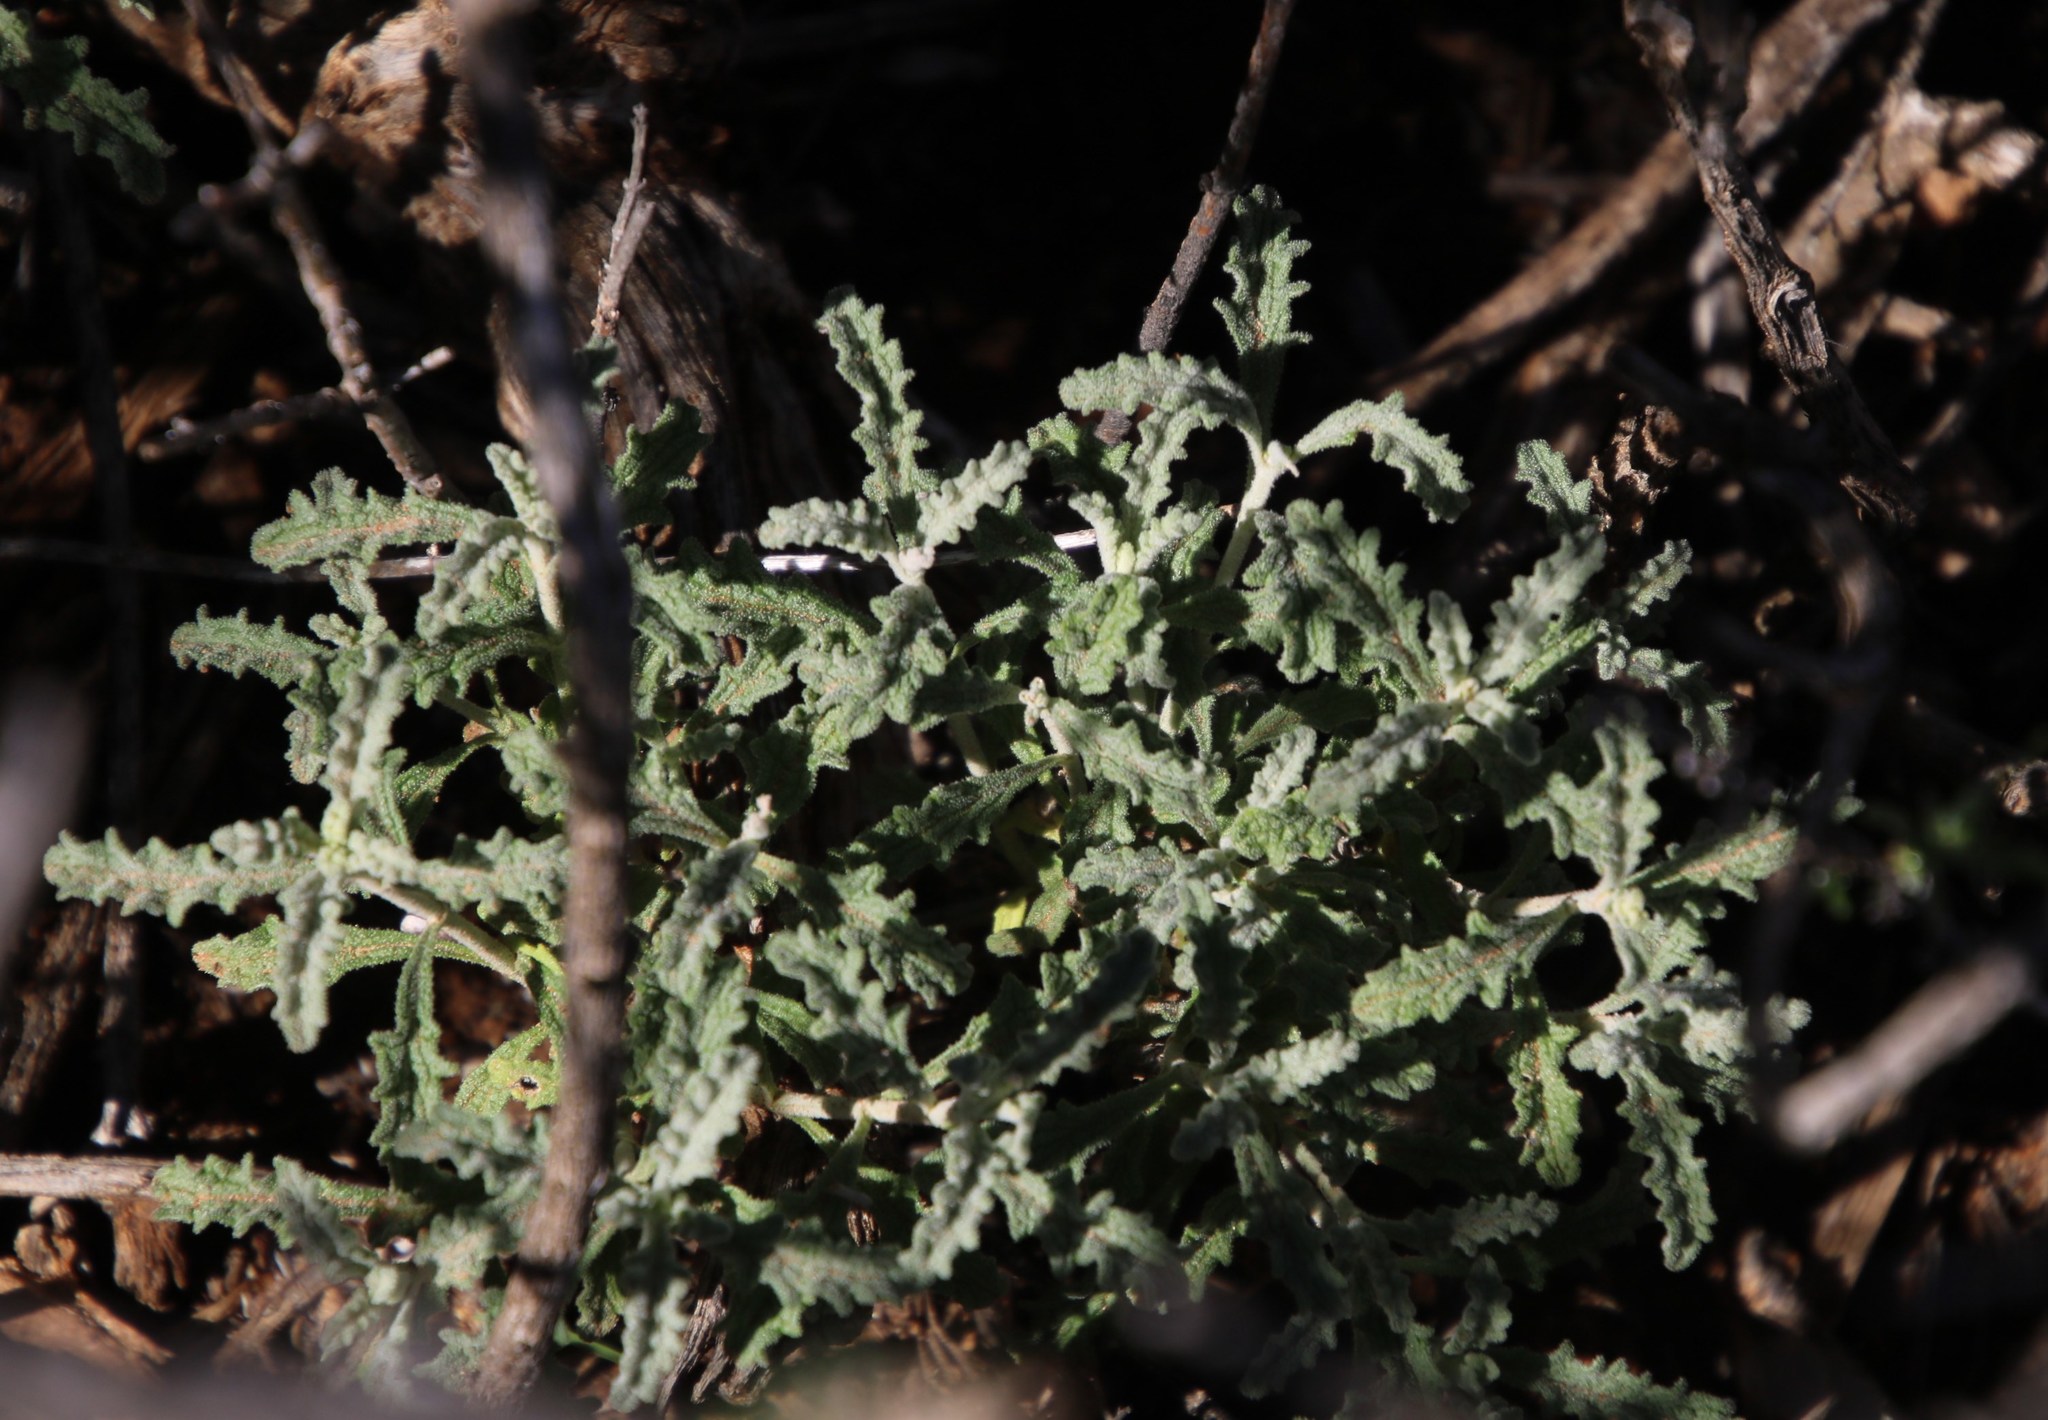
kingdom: Plantae
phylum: Tracheophyta
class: Magnoliopsida
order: Lamiales
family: Lamiaceae
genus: Stachys
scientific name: Stachys cuneata
